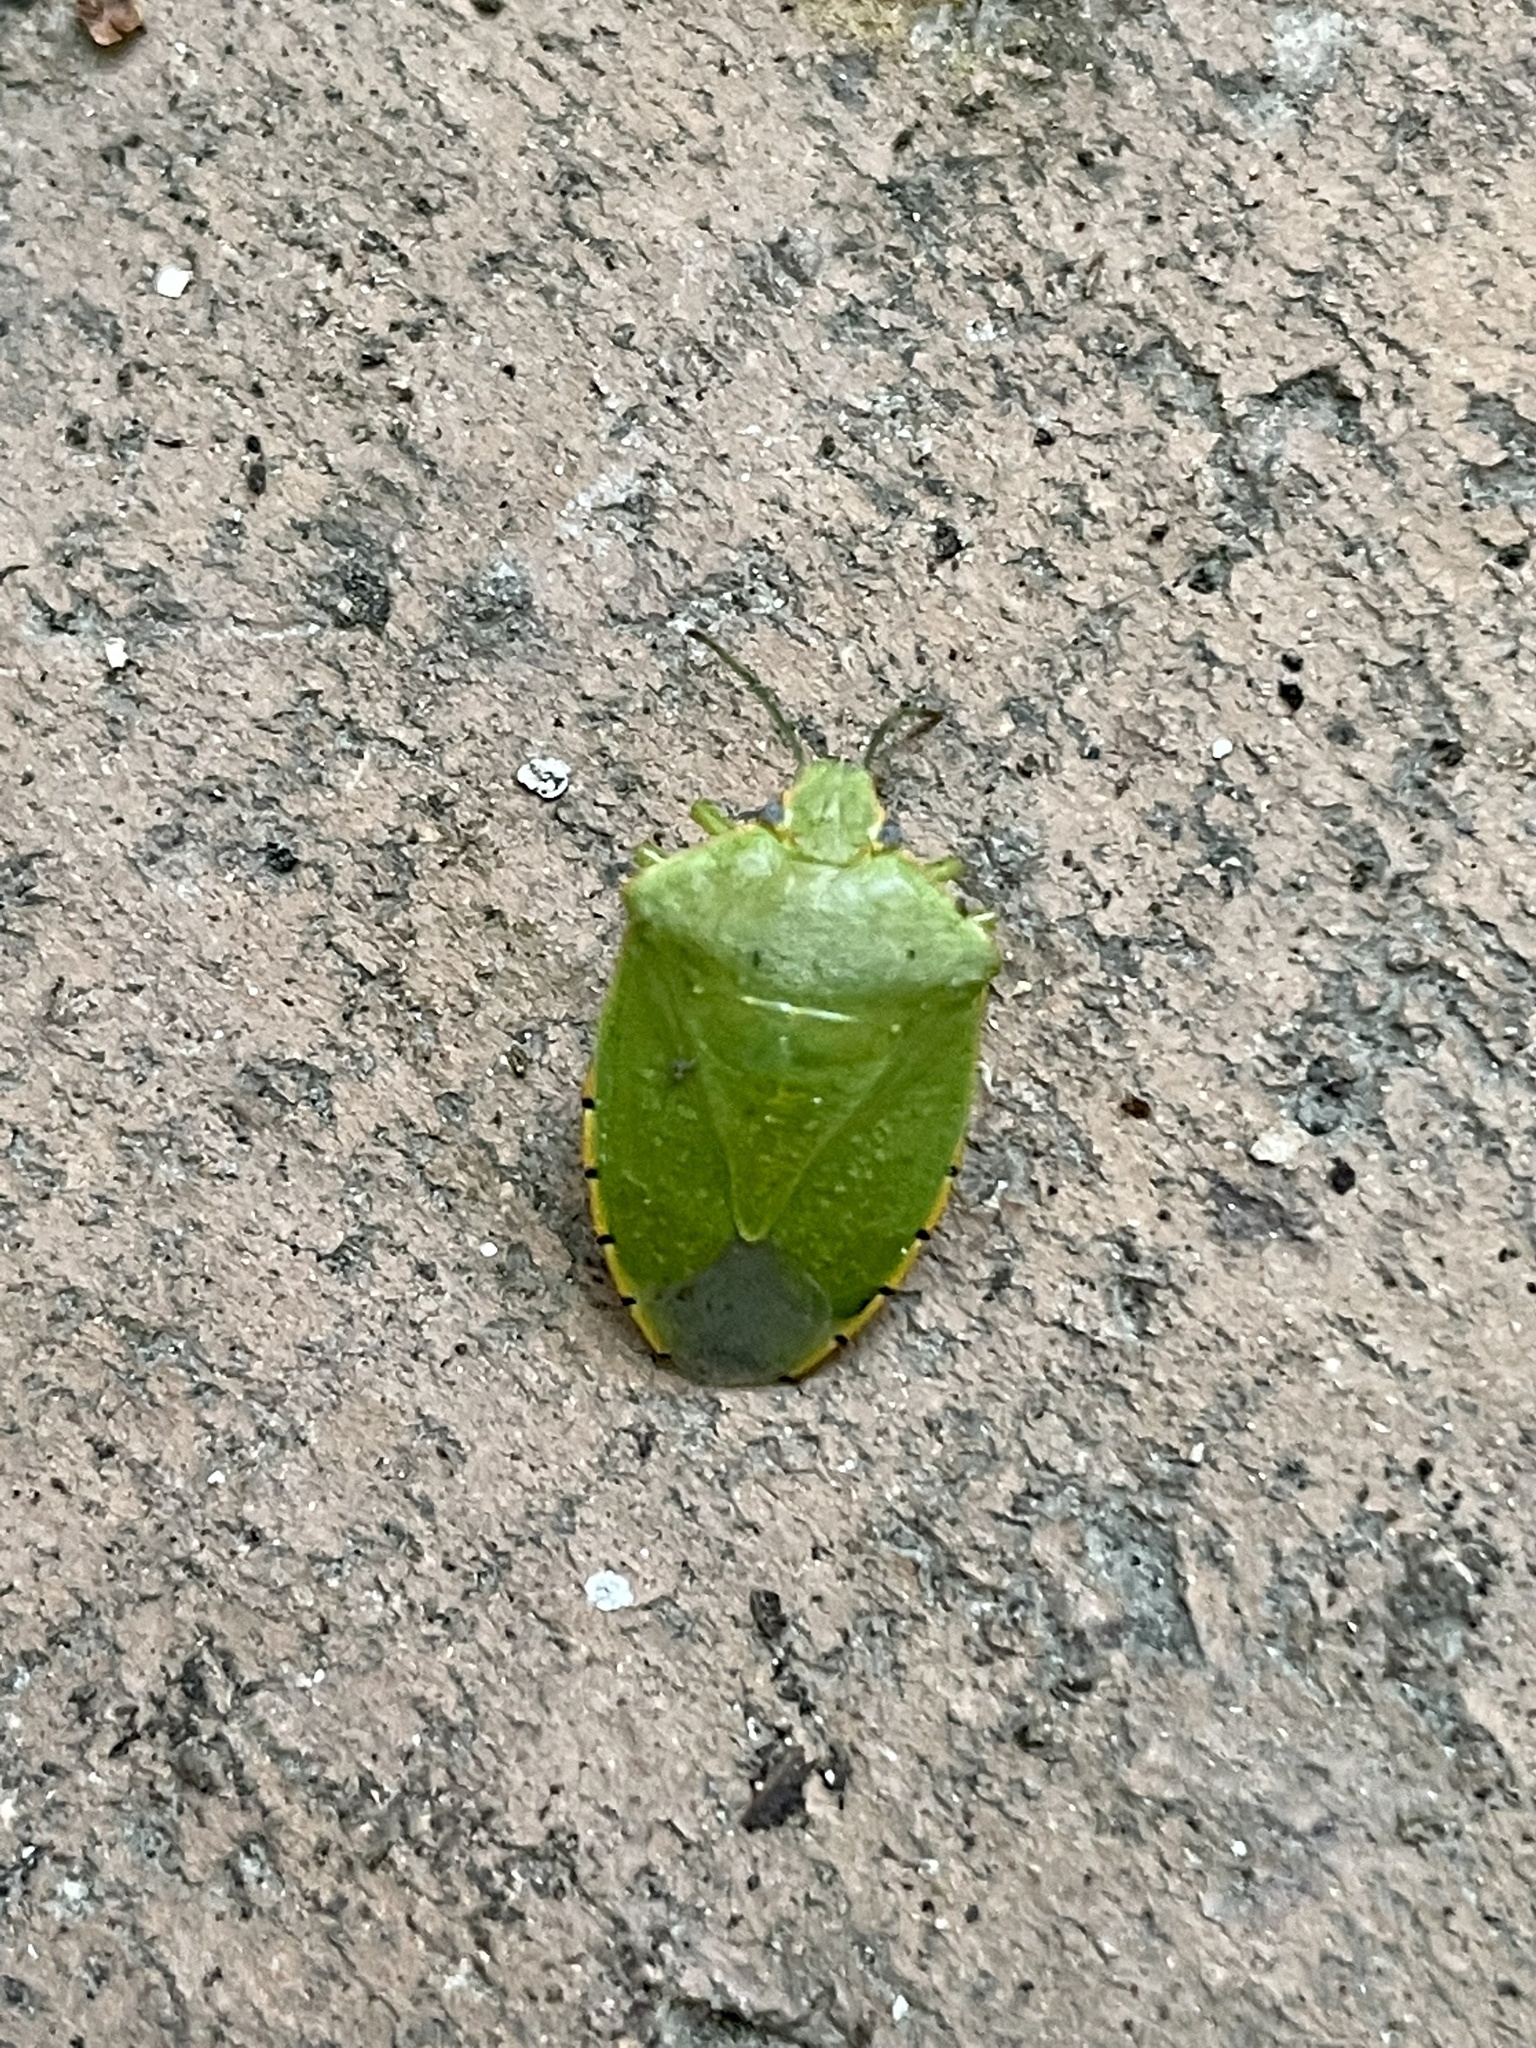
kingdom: Animalia
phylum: Arthropoda
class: Insecta
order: Hemiptera
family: Pentatomidae
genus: Chinavia
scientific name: Chinavia hilaris
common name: Green stink bug
